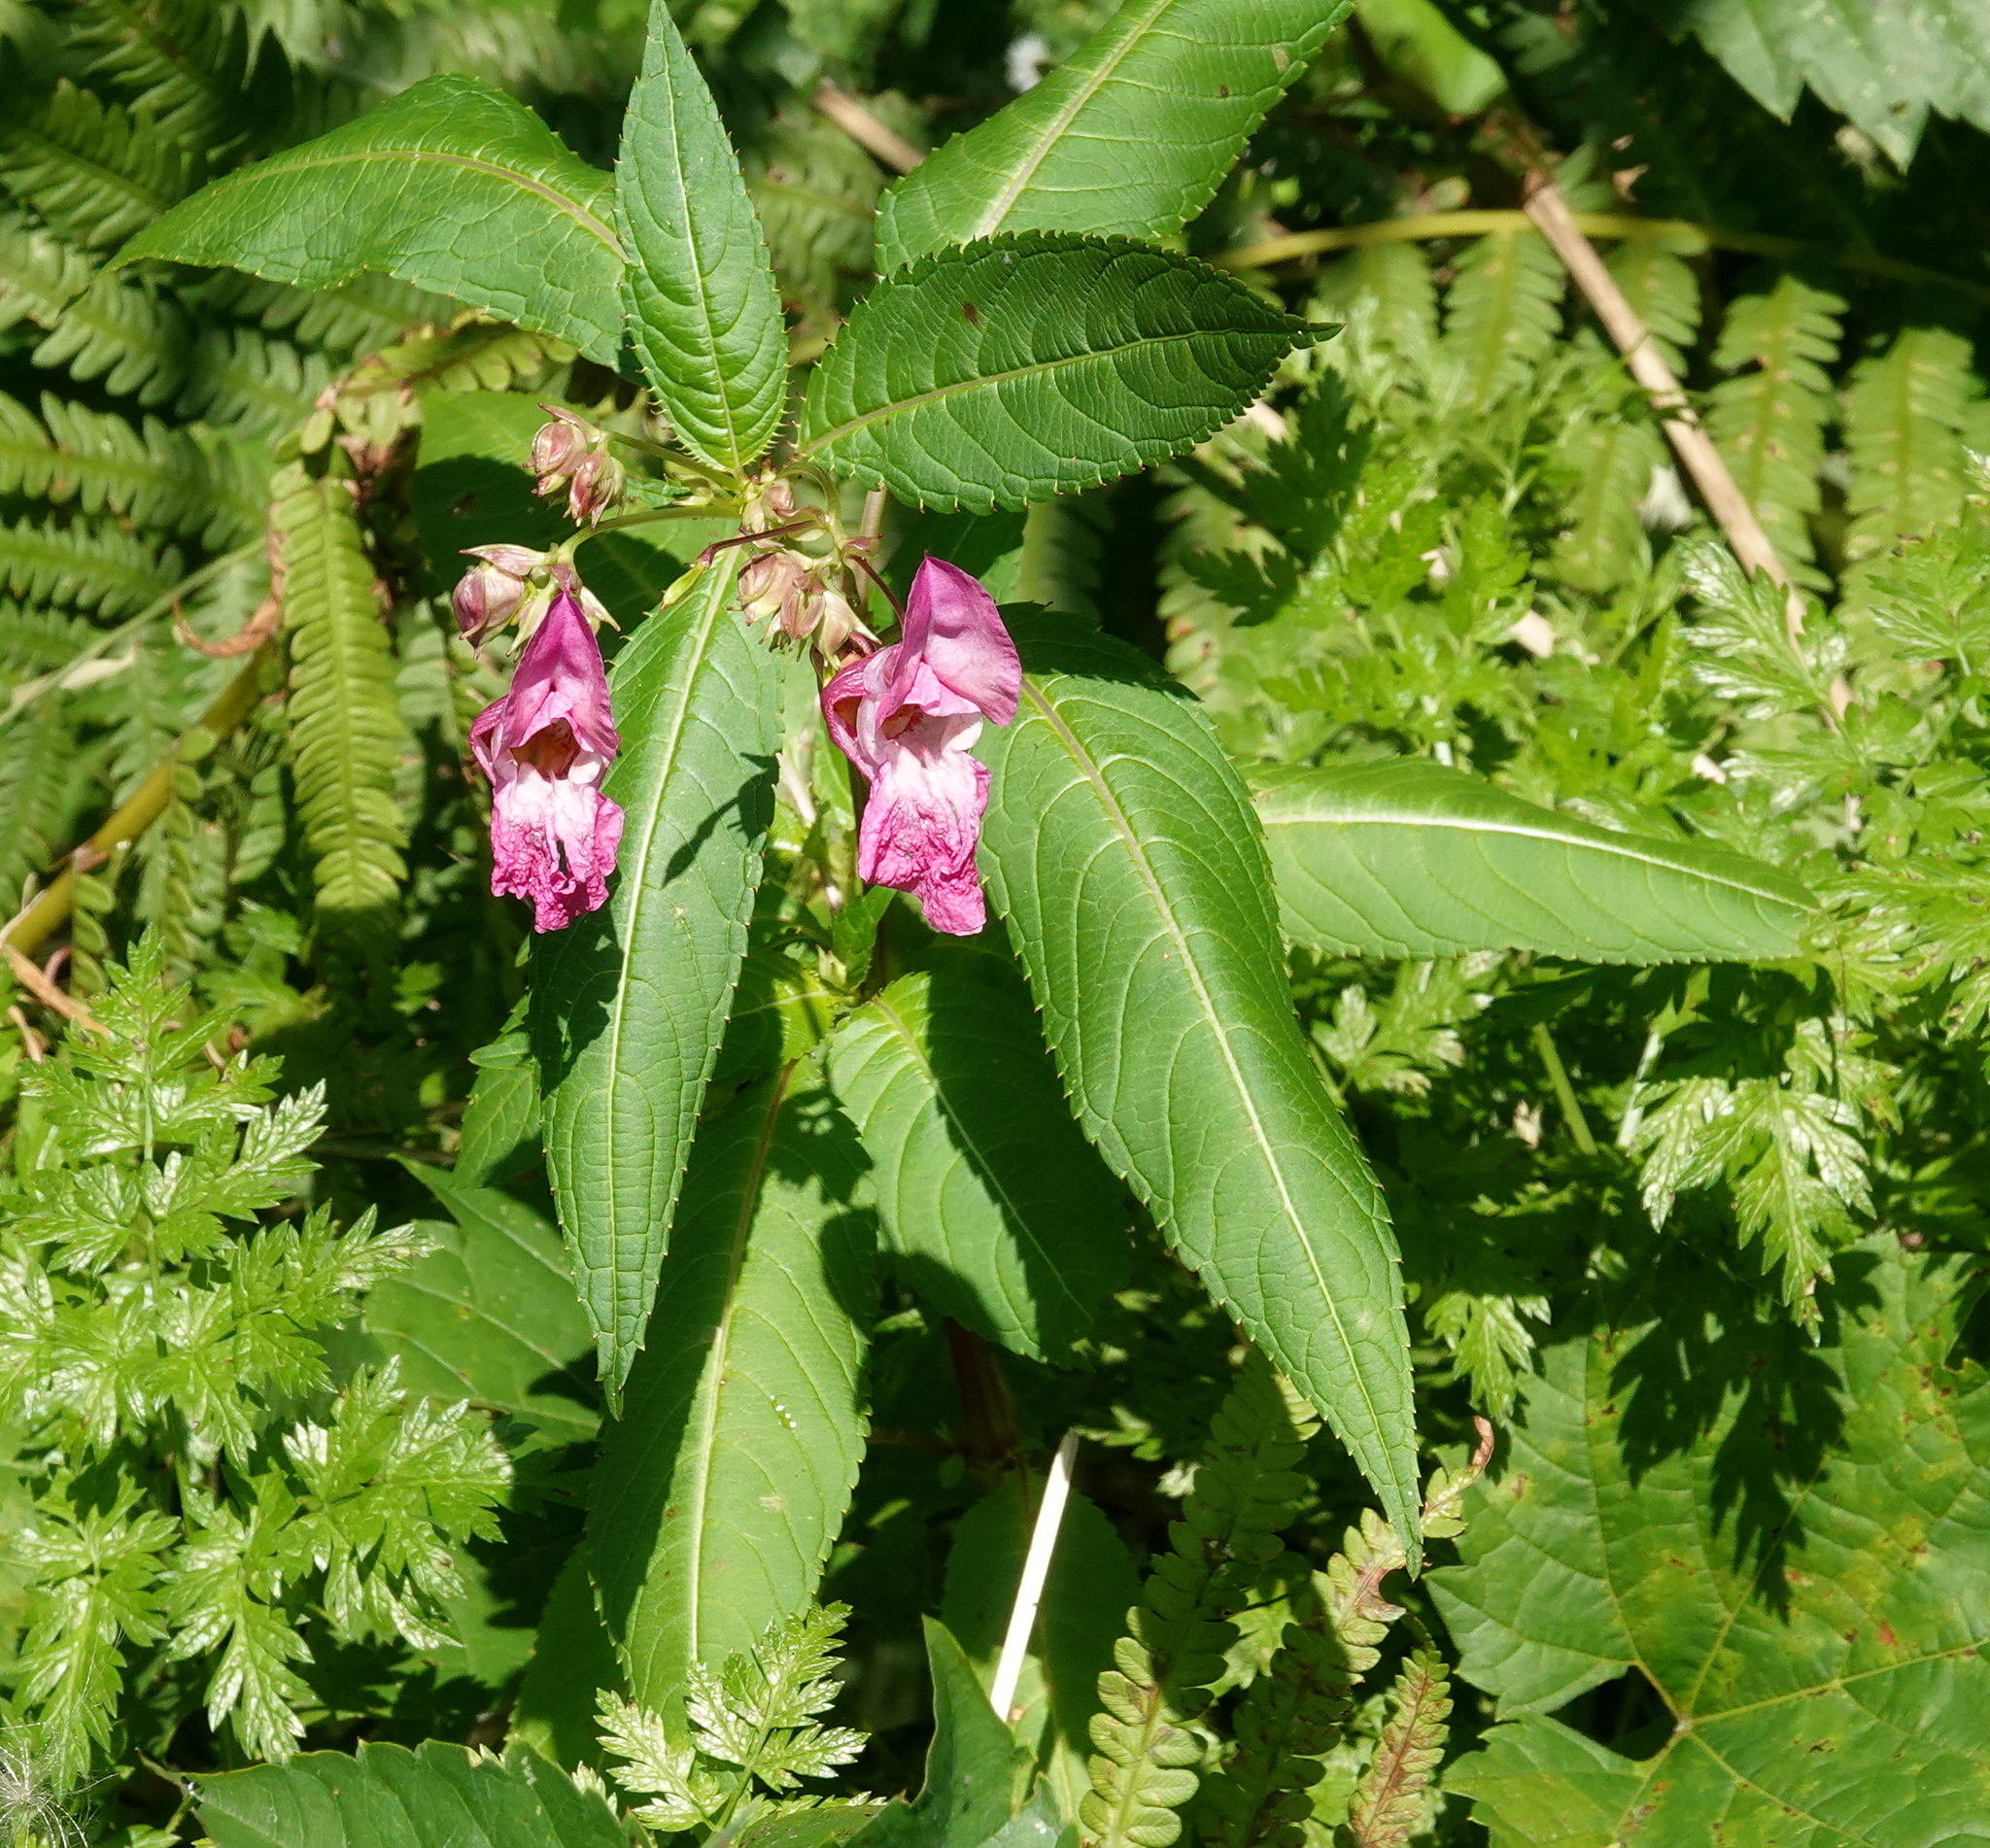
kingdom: Plantae
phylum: Tracheophyta
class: Magnoliopsida
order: Ericales
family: Balsaminaceae
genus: Impatiens
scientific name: Impatiens glandulifera
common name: Himalayan balsam
